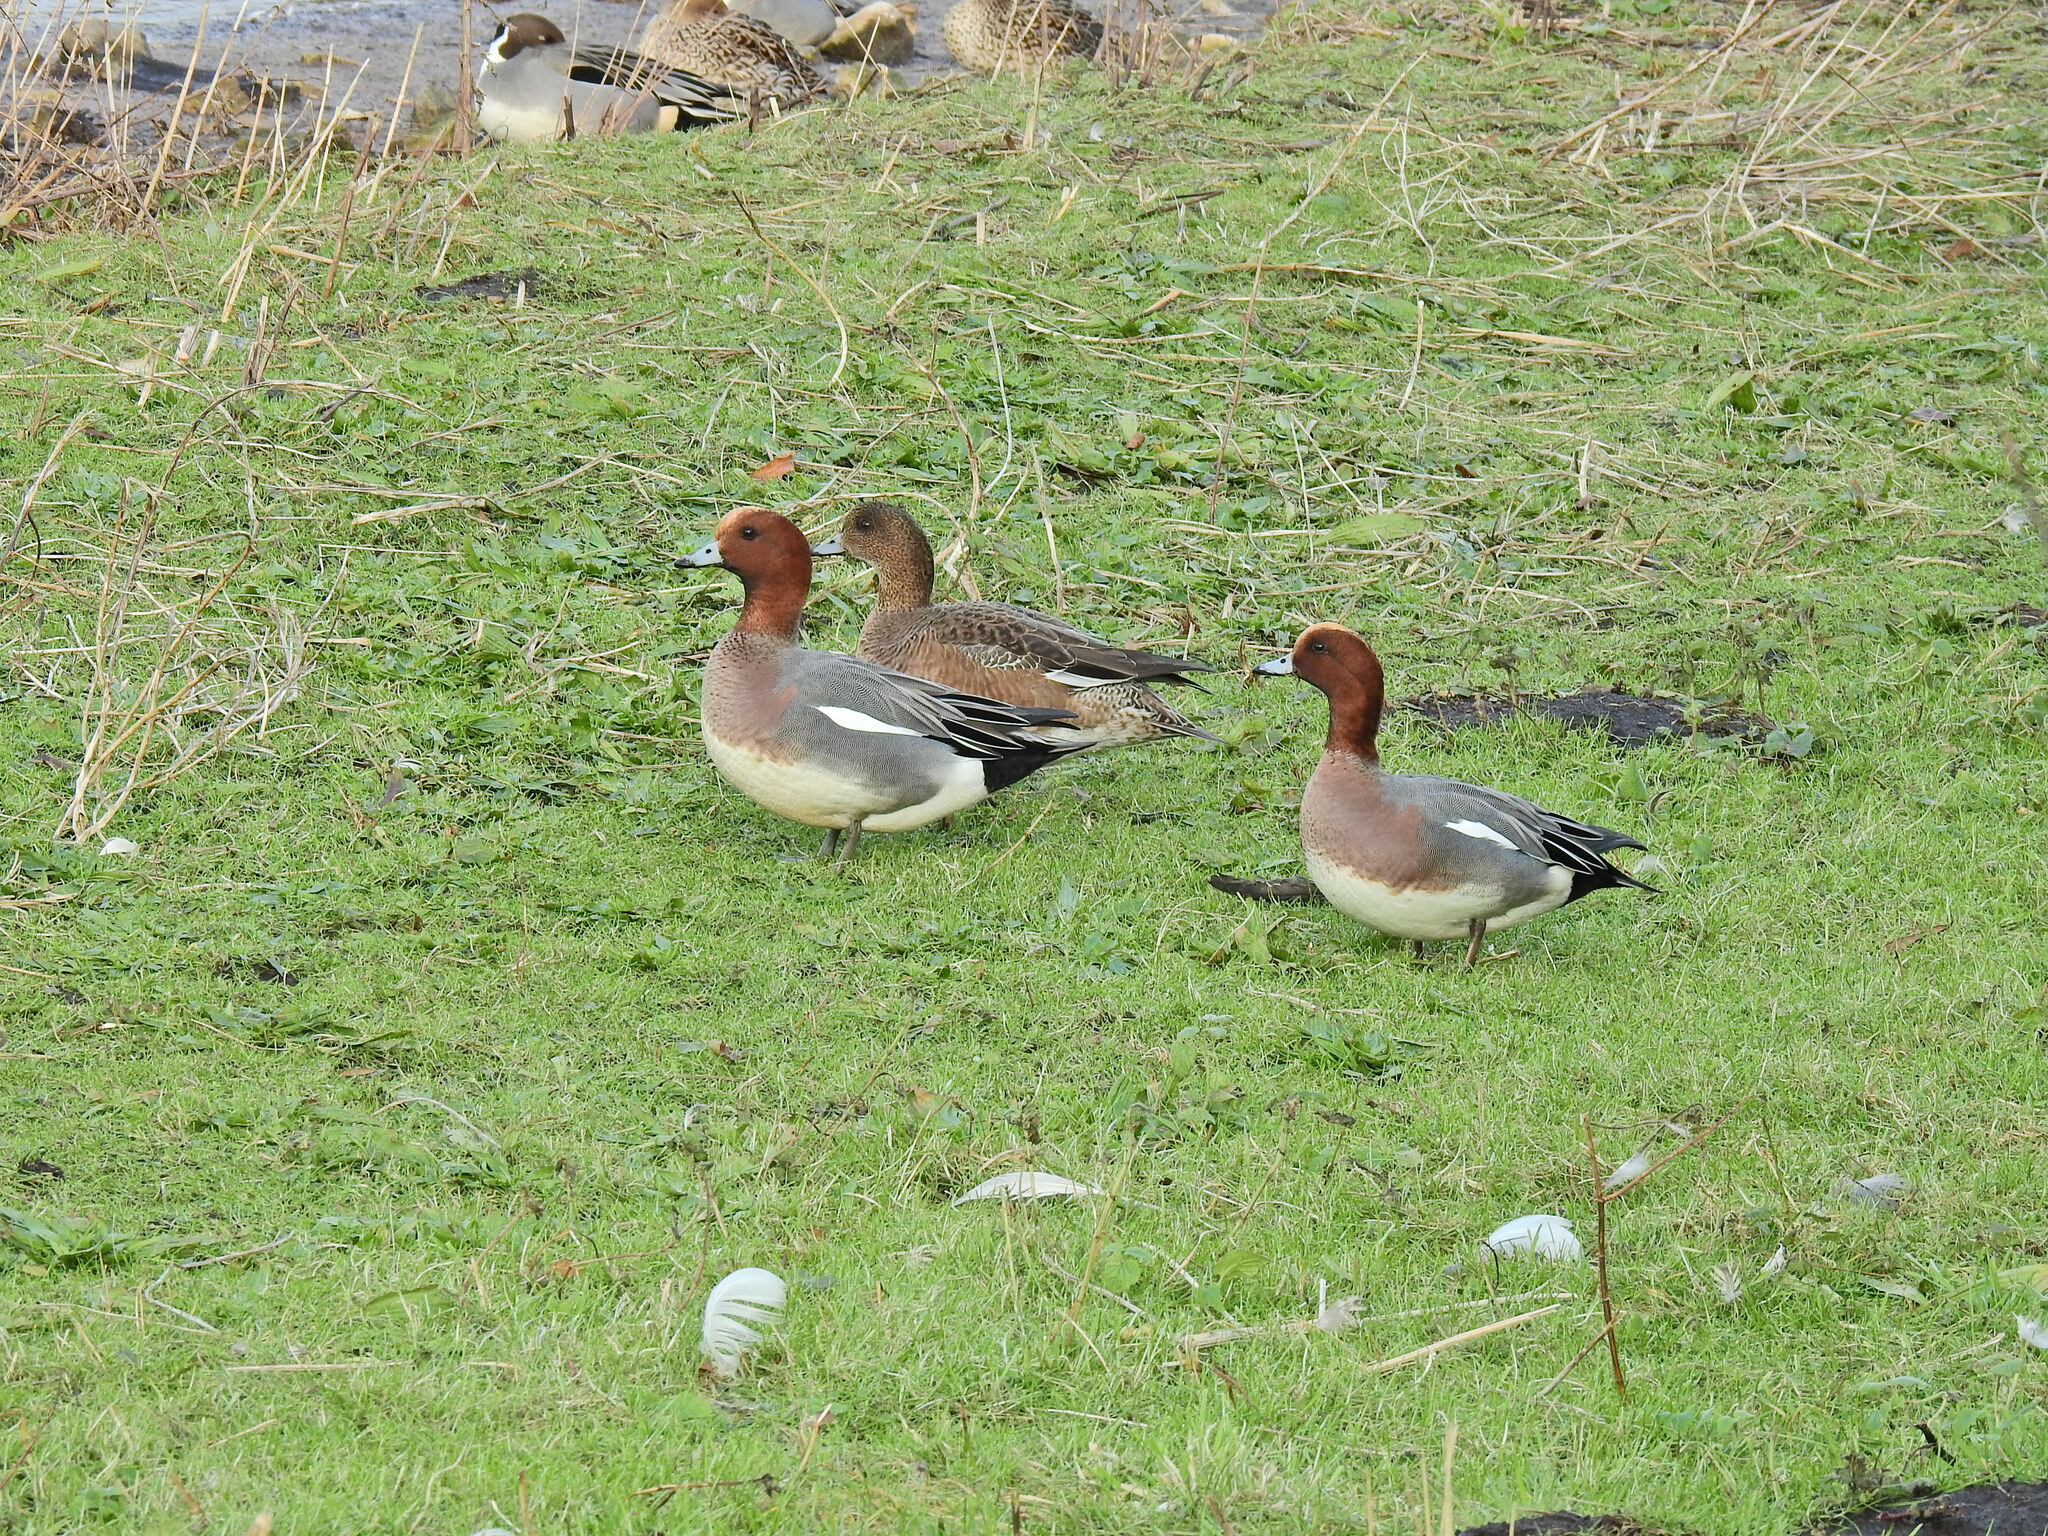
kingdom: Animalia
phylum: Chordata
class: Aves
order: Anseriformes
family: Anatidae
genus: Mareca
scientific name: Mareca penelope
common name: Eurasian wigeon
